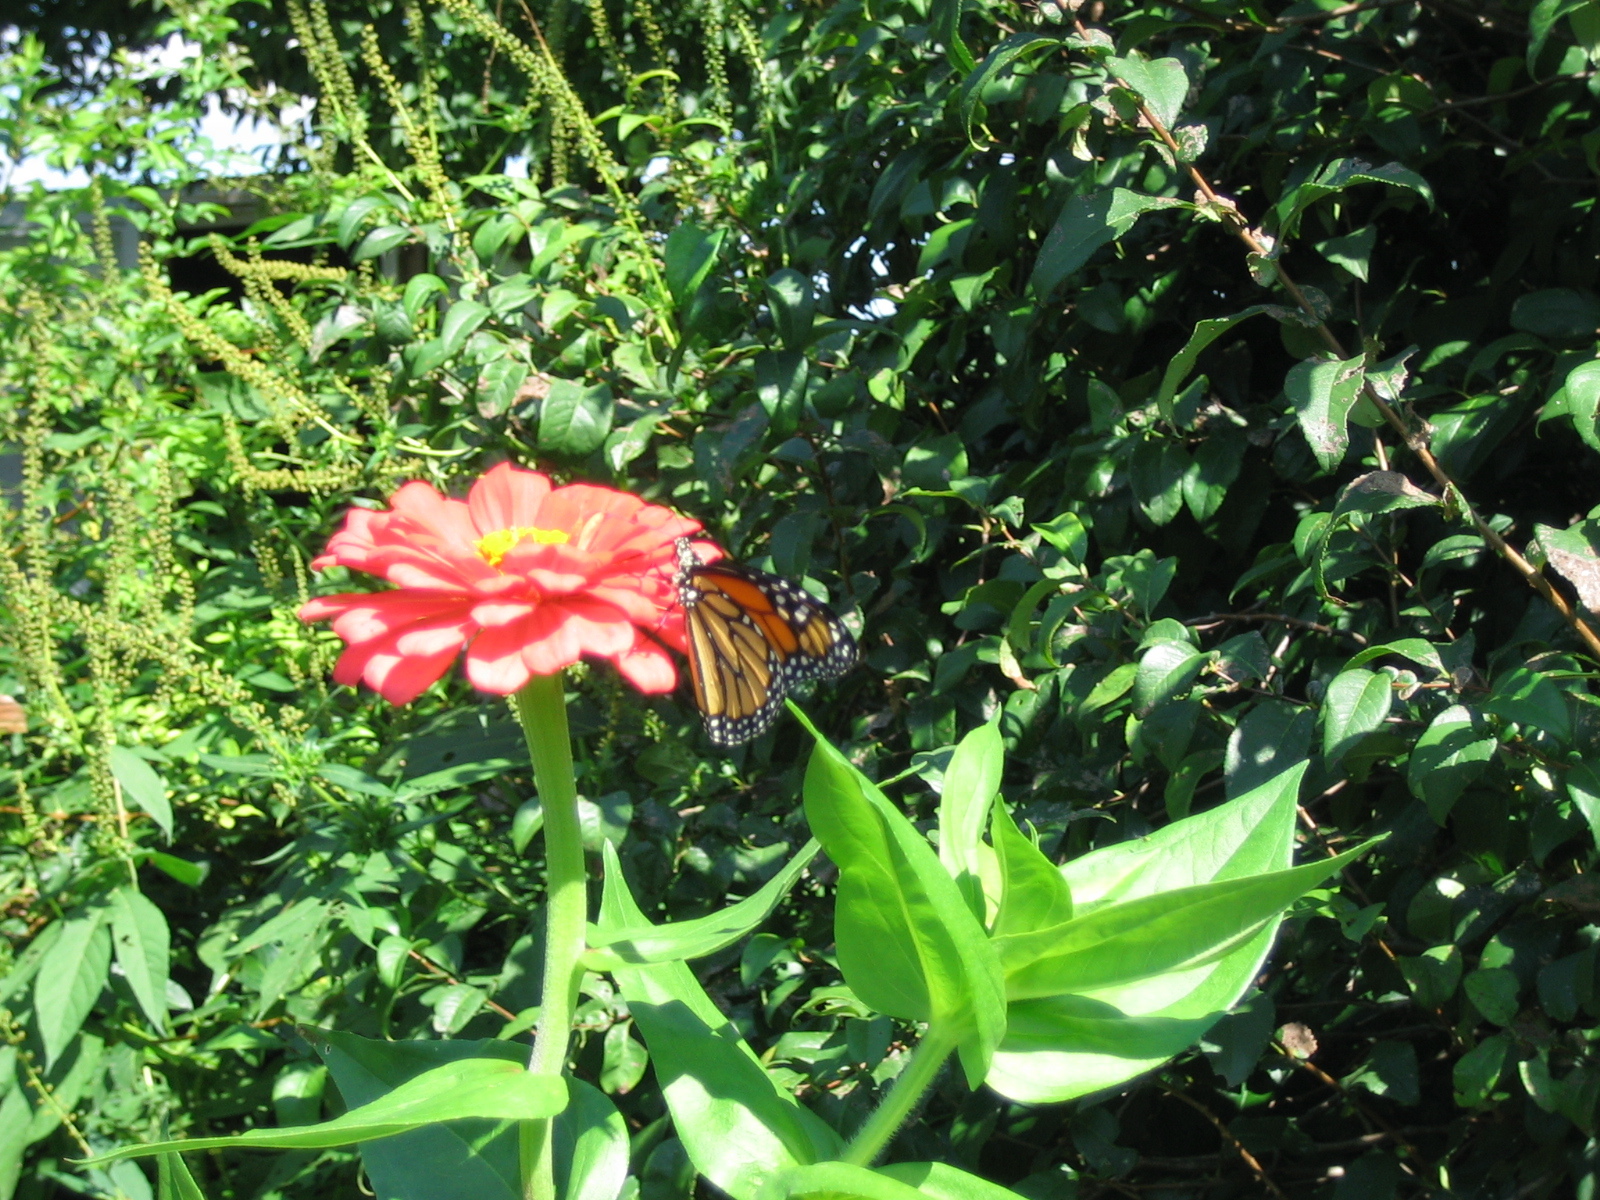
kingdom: Animalia
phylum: Arthropoda
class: Insecta
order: Lepidoptera
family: Nymphalidae
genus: Danaus
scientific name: Danaus plexippus
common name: Monarch
